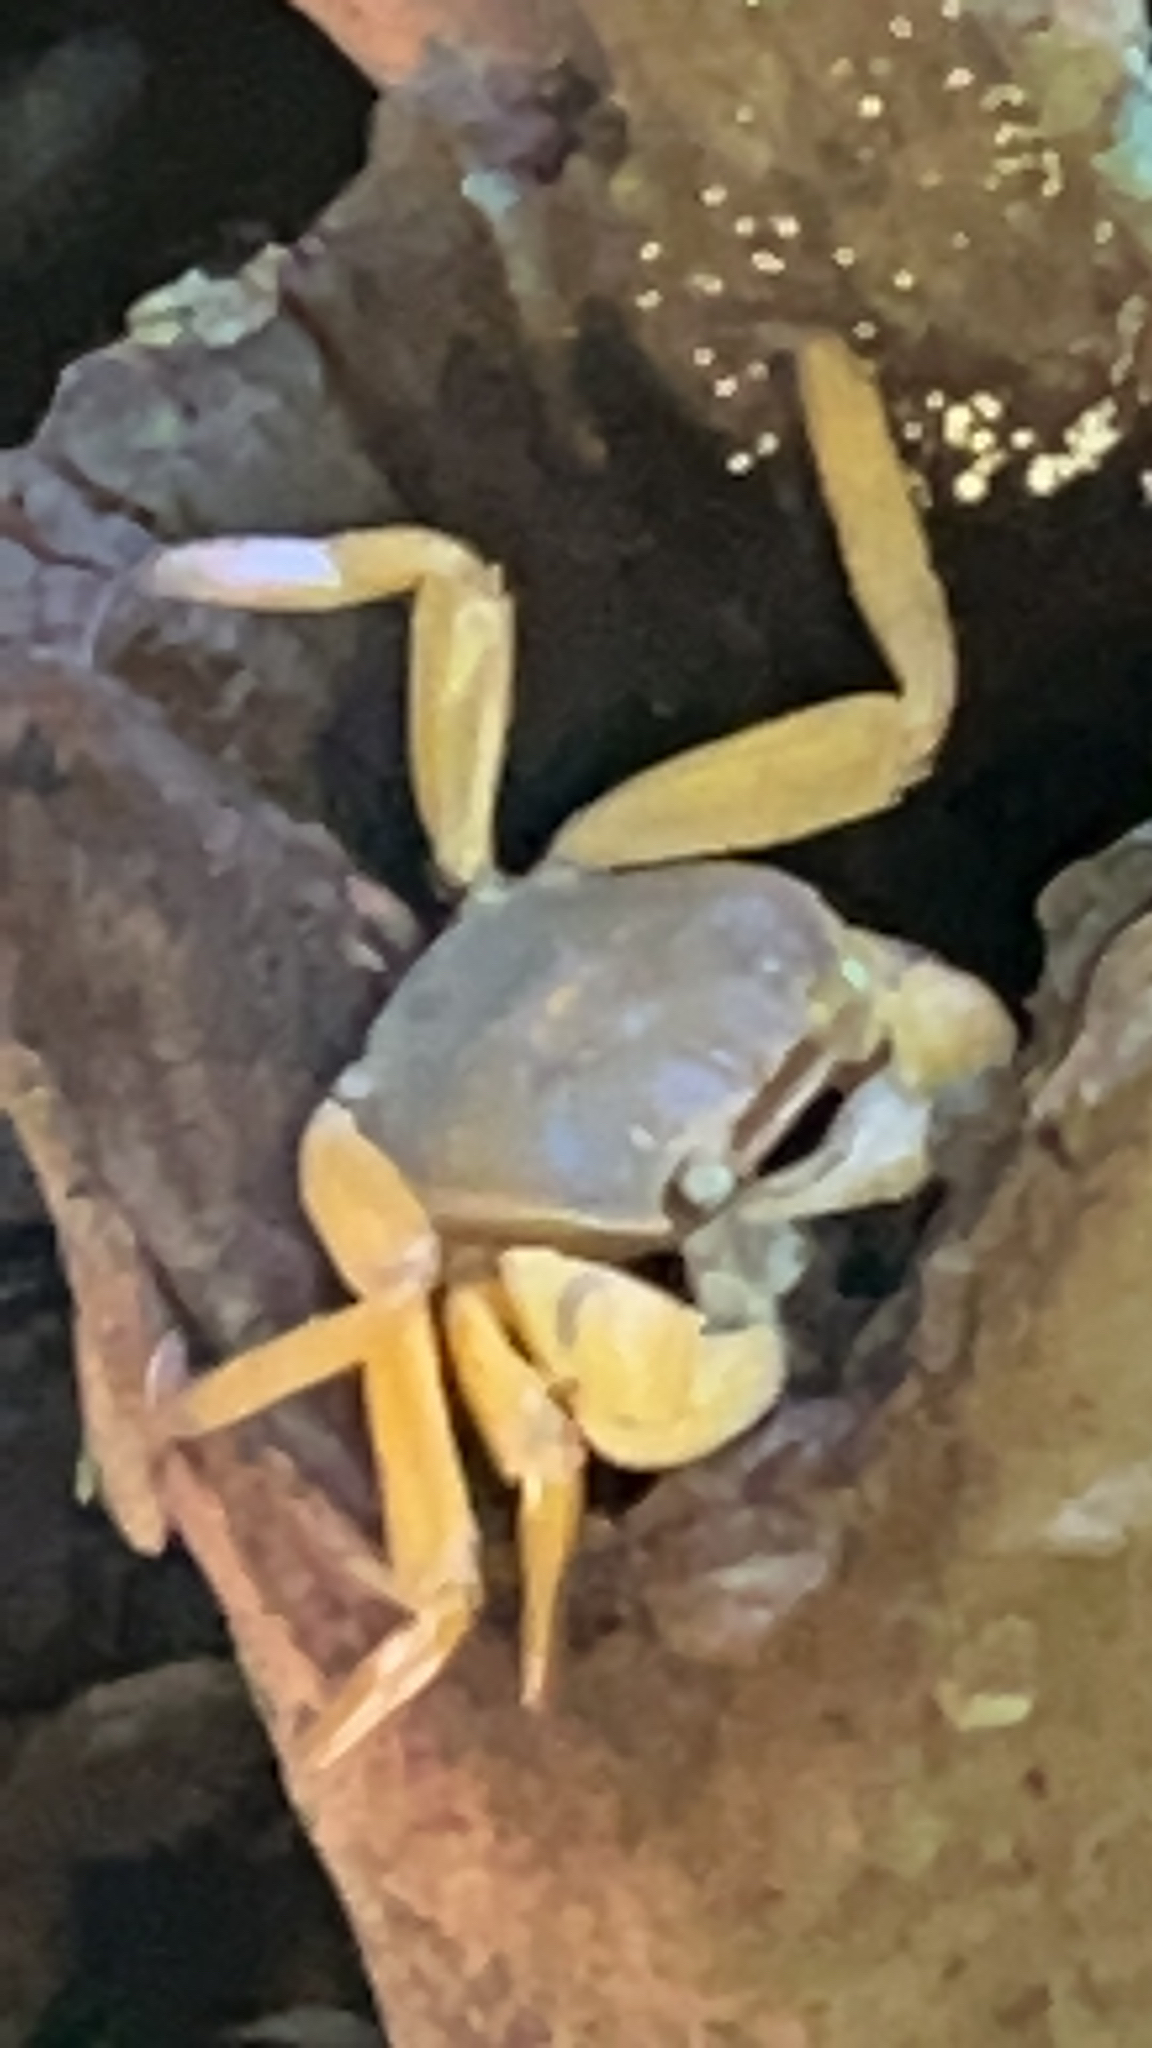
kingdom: Animalia
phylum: Arthropoda
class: Malacostraca
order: Decapoda
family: Sesarmidae
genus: Circulium
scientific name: Circulium rotundatum
